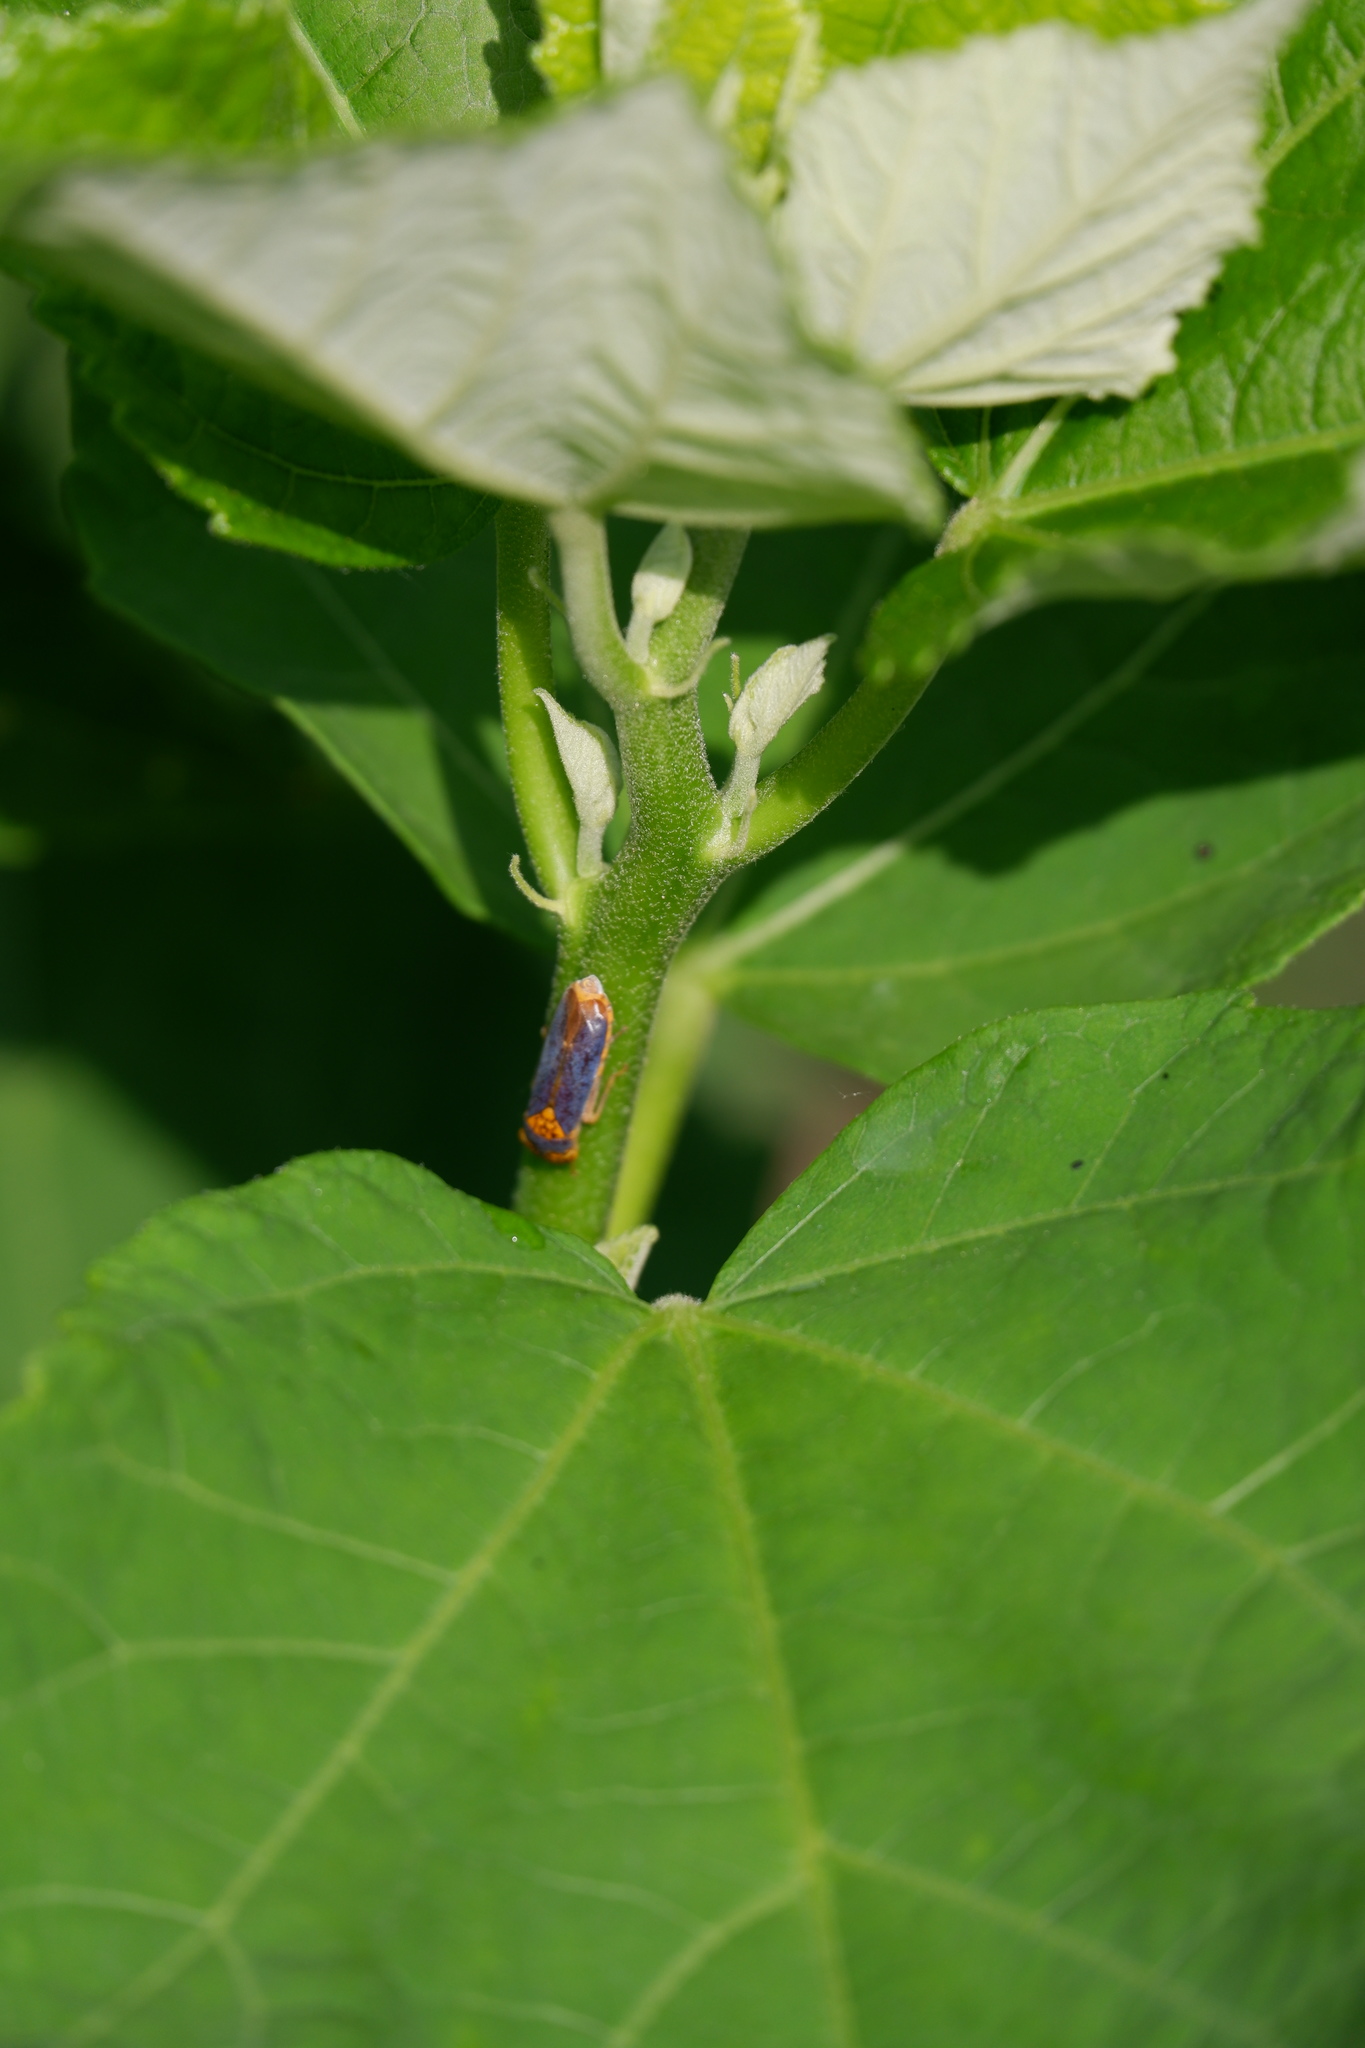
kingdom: Animalia
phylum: Arthropoda
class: Insecta
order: Hemiptera
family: Cicadellidae
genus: Oncometopia
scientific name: Oncometopia orbona
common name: Broad-headed sharpshooter
